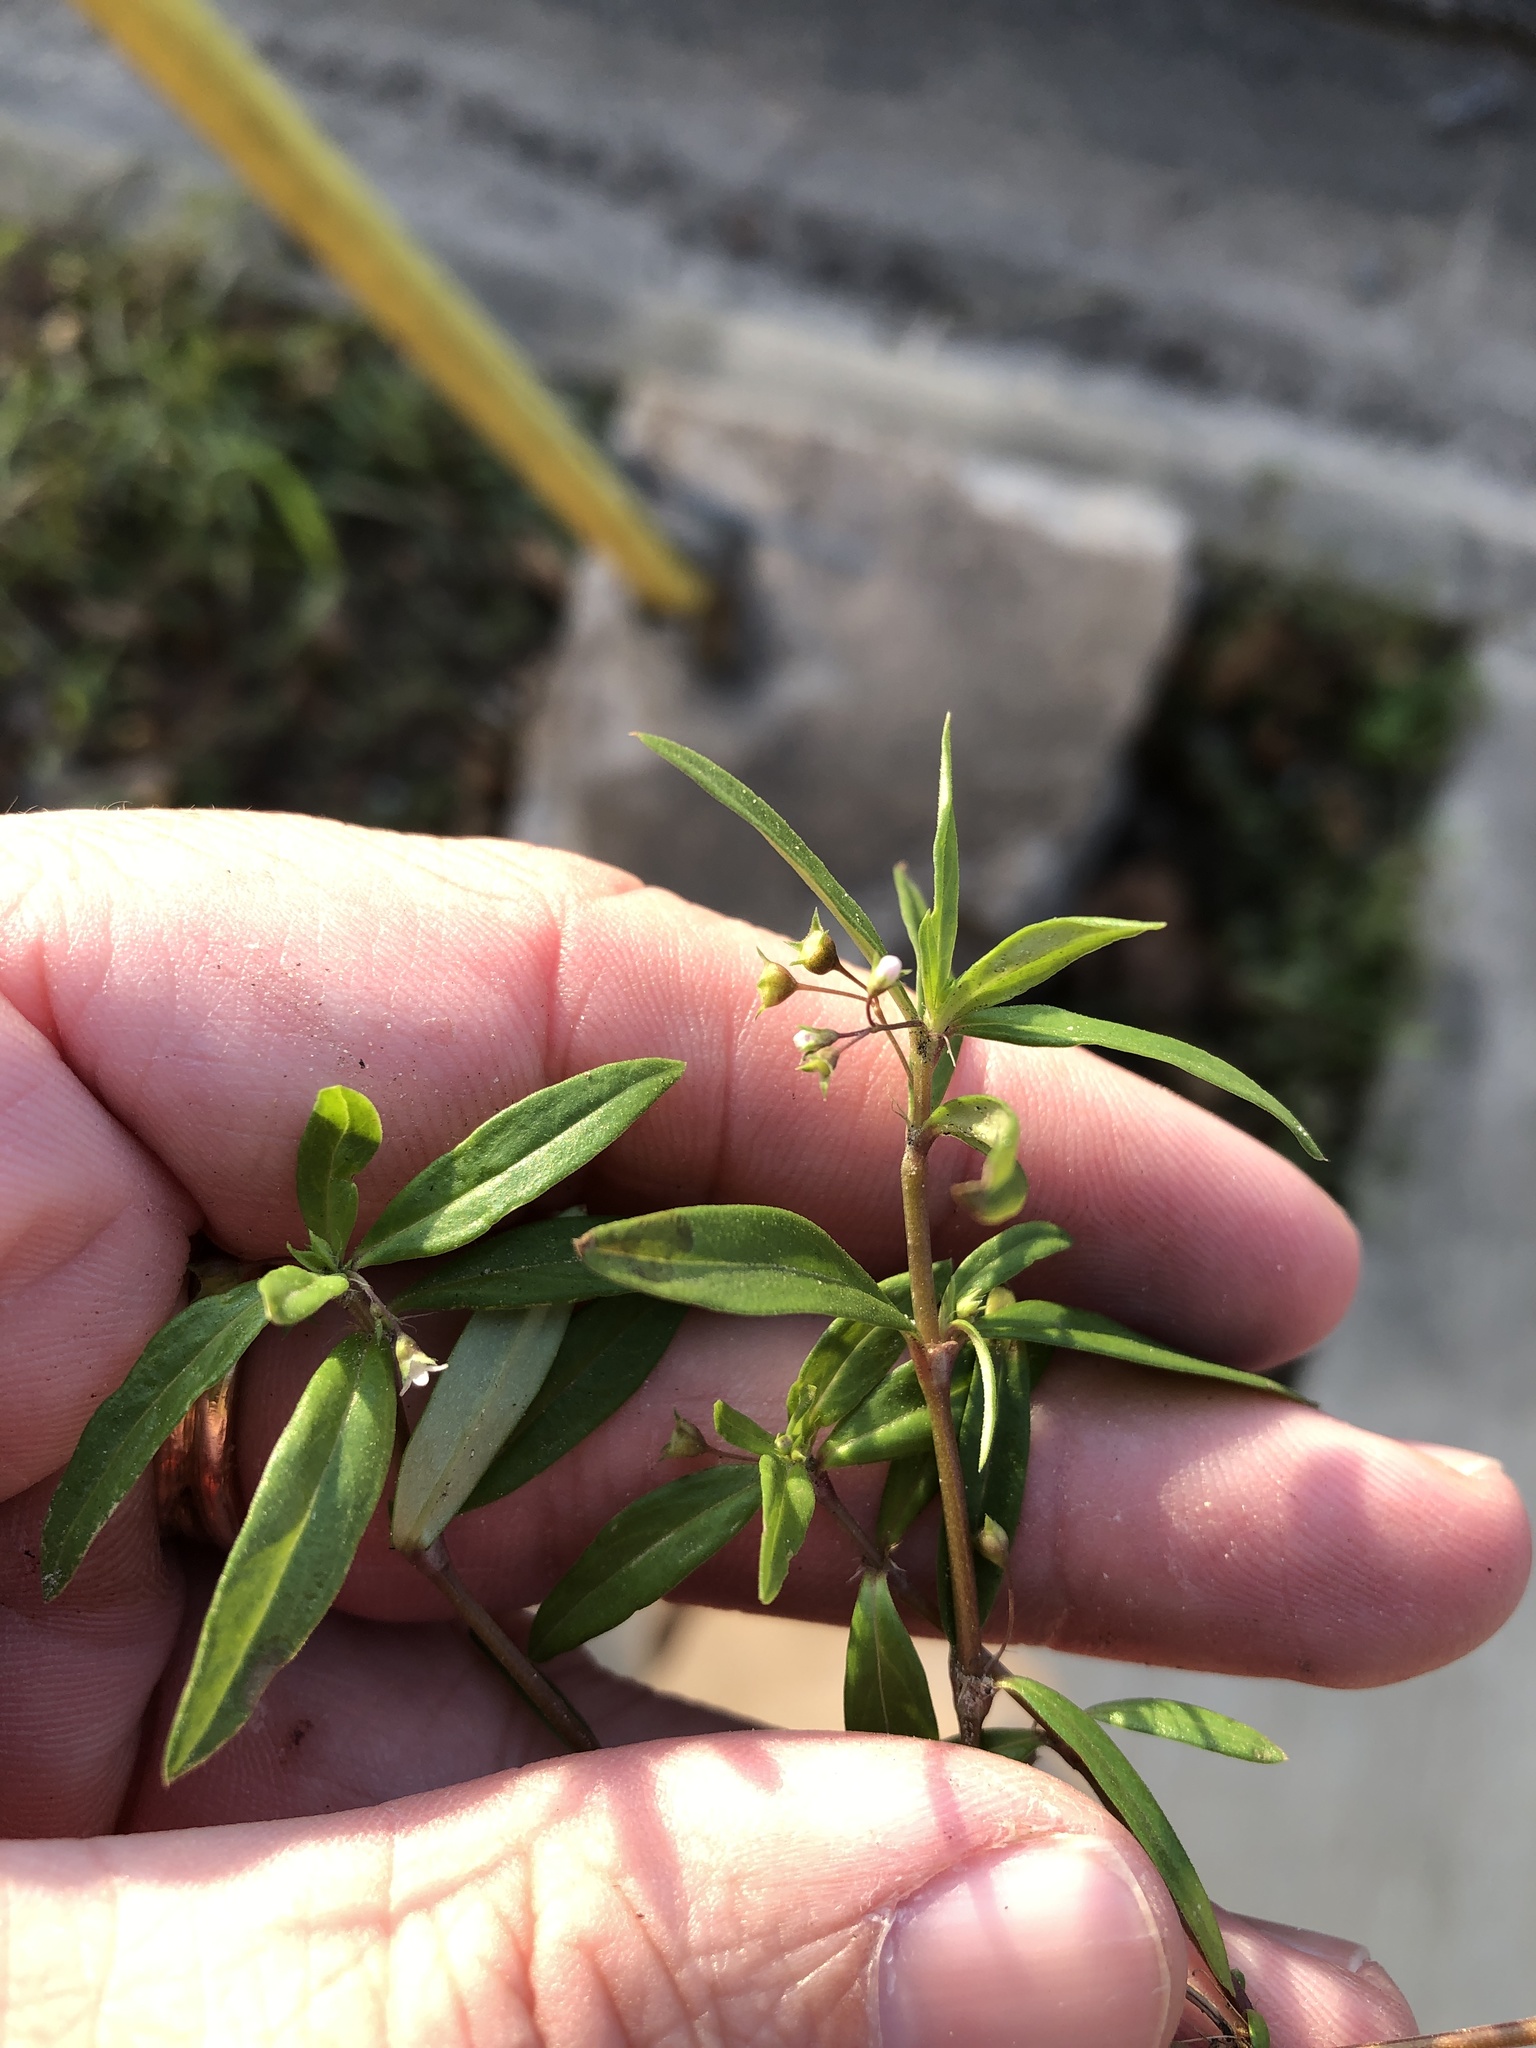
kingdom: Plantae
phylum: Tracheophyta
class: Magnoliopsida
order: Gentianales
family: Rubiaceae
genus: Oldenlandia
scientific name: Oldenlandia corymbosa
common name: Flat-top mille graines
